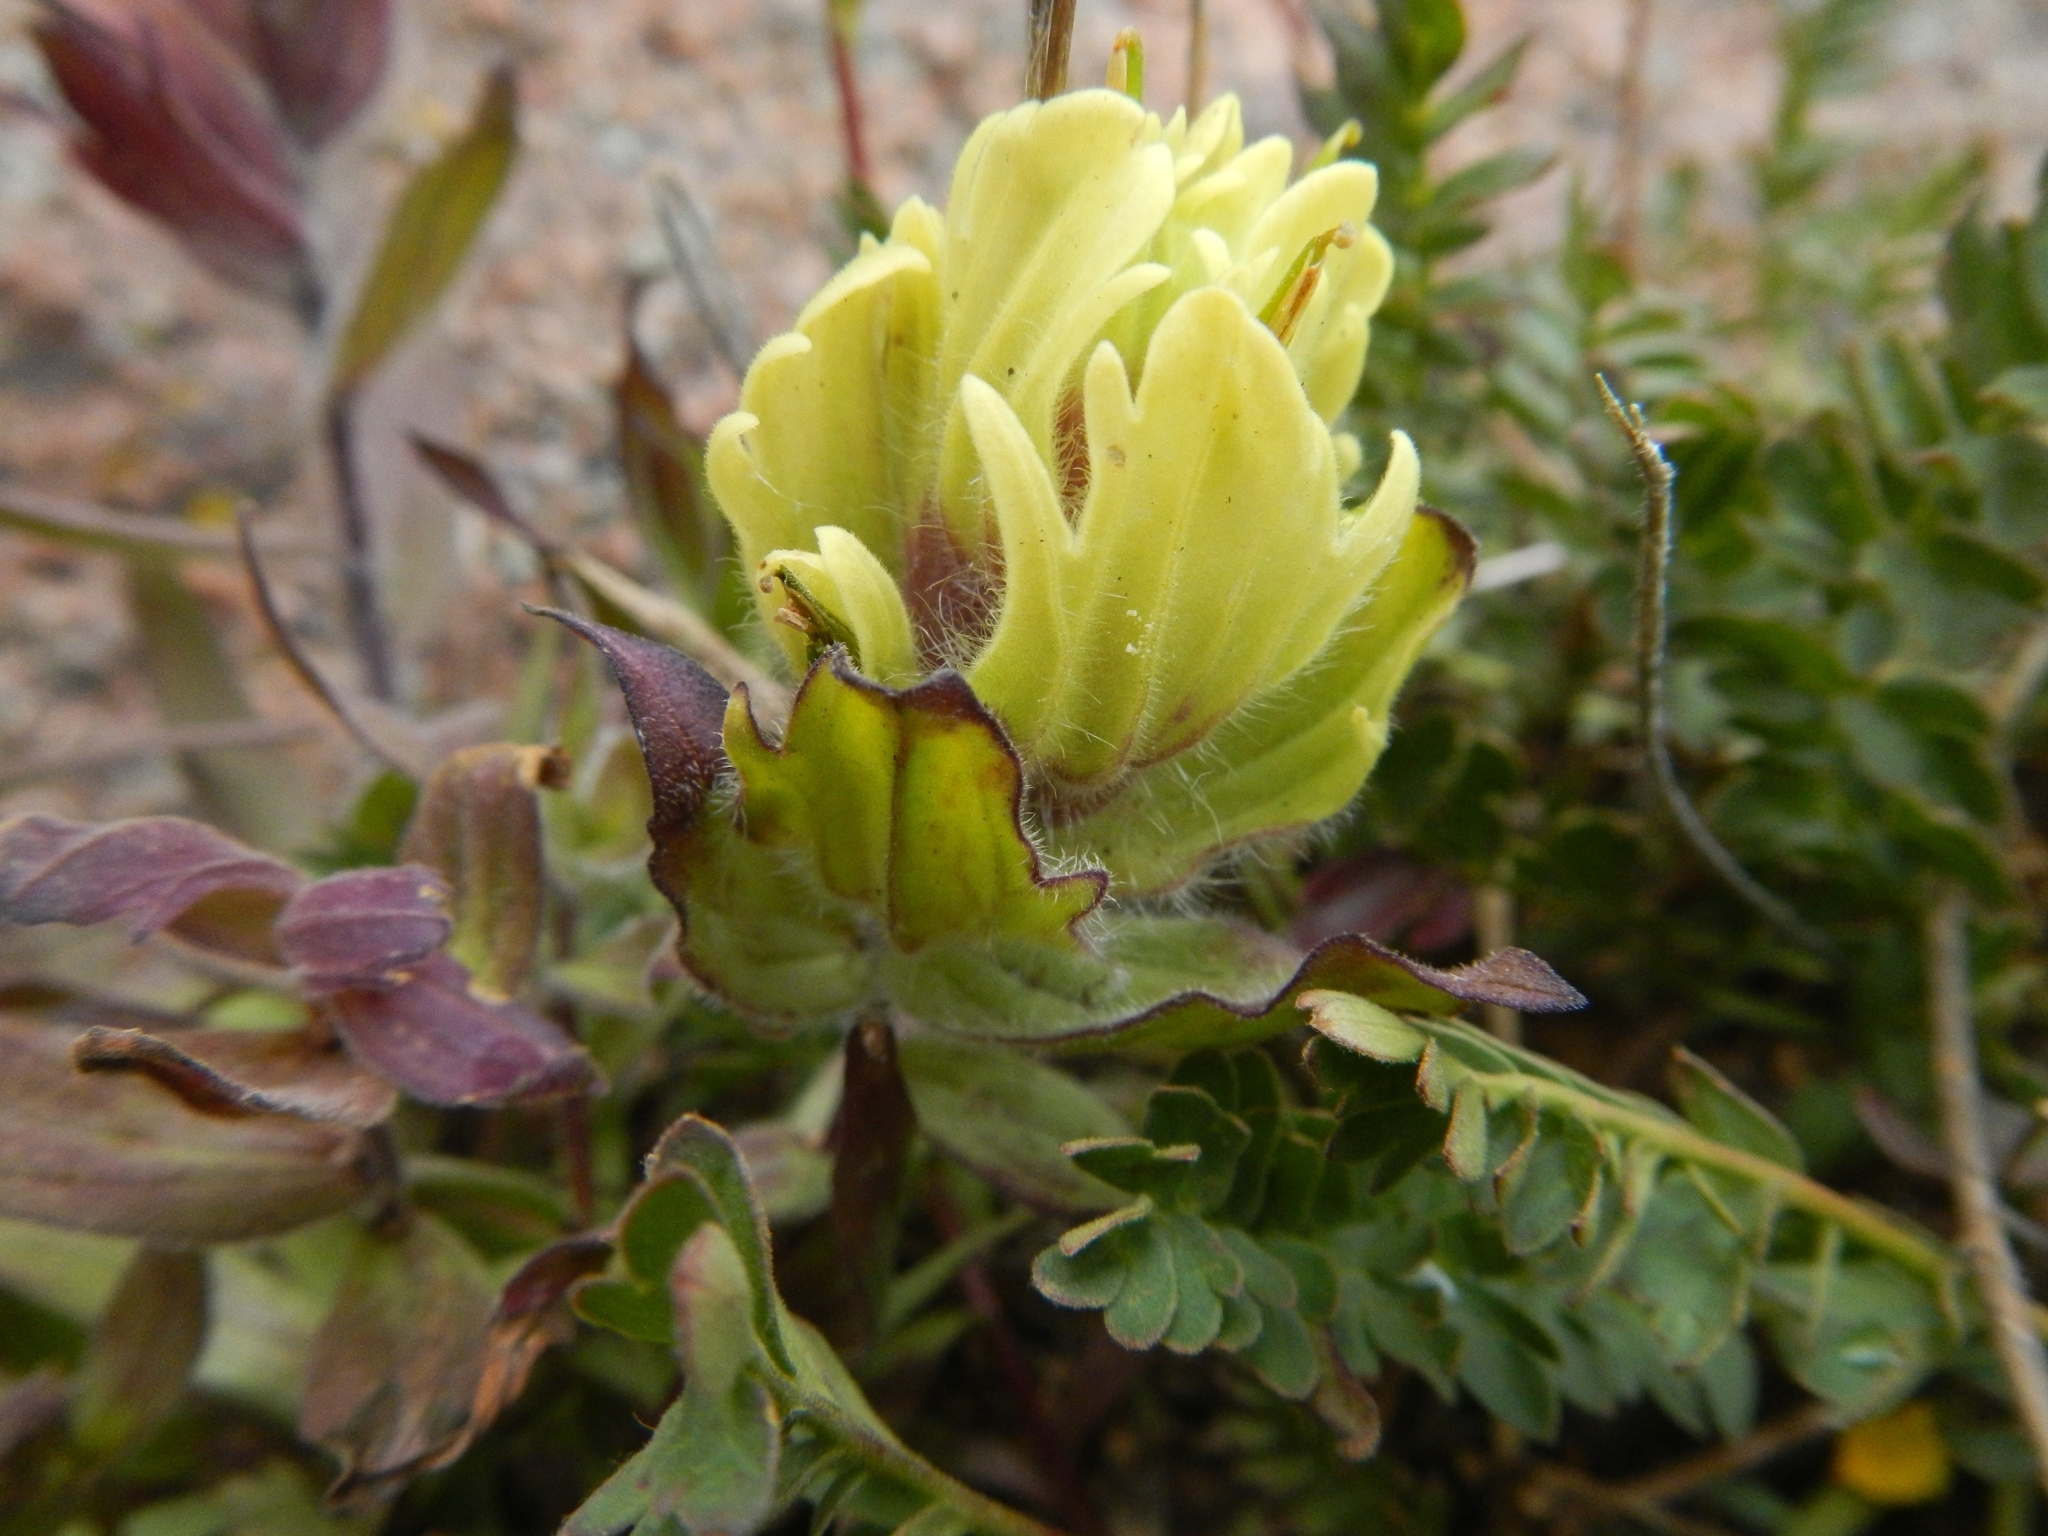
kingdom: Plantae
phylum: Tracheophyta
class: Magnoliopsida
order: Lamiales
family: Orobanchaceae
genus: Castilleja
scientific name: Castilleja occidentalis
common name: Western paintbrush
